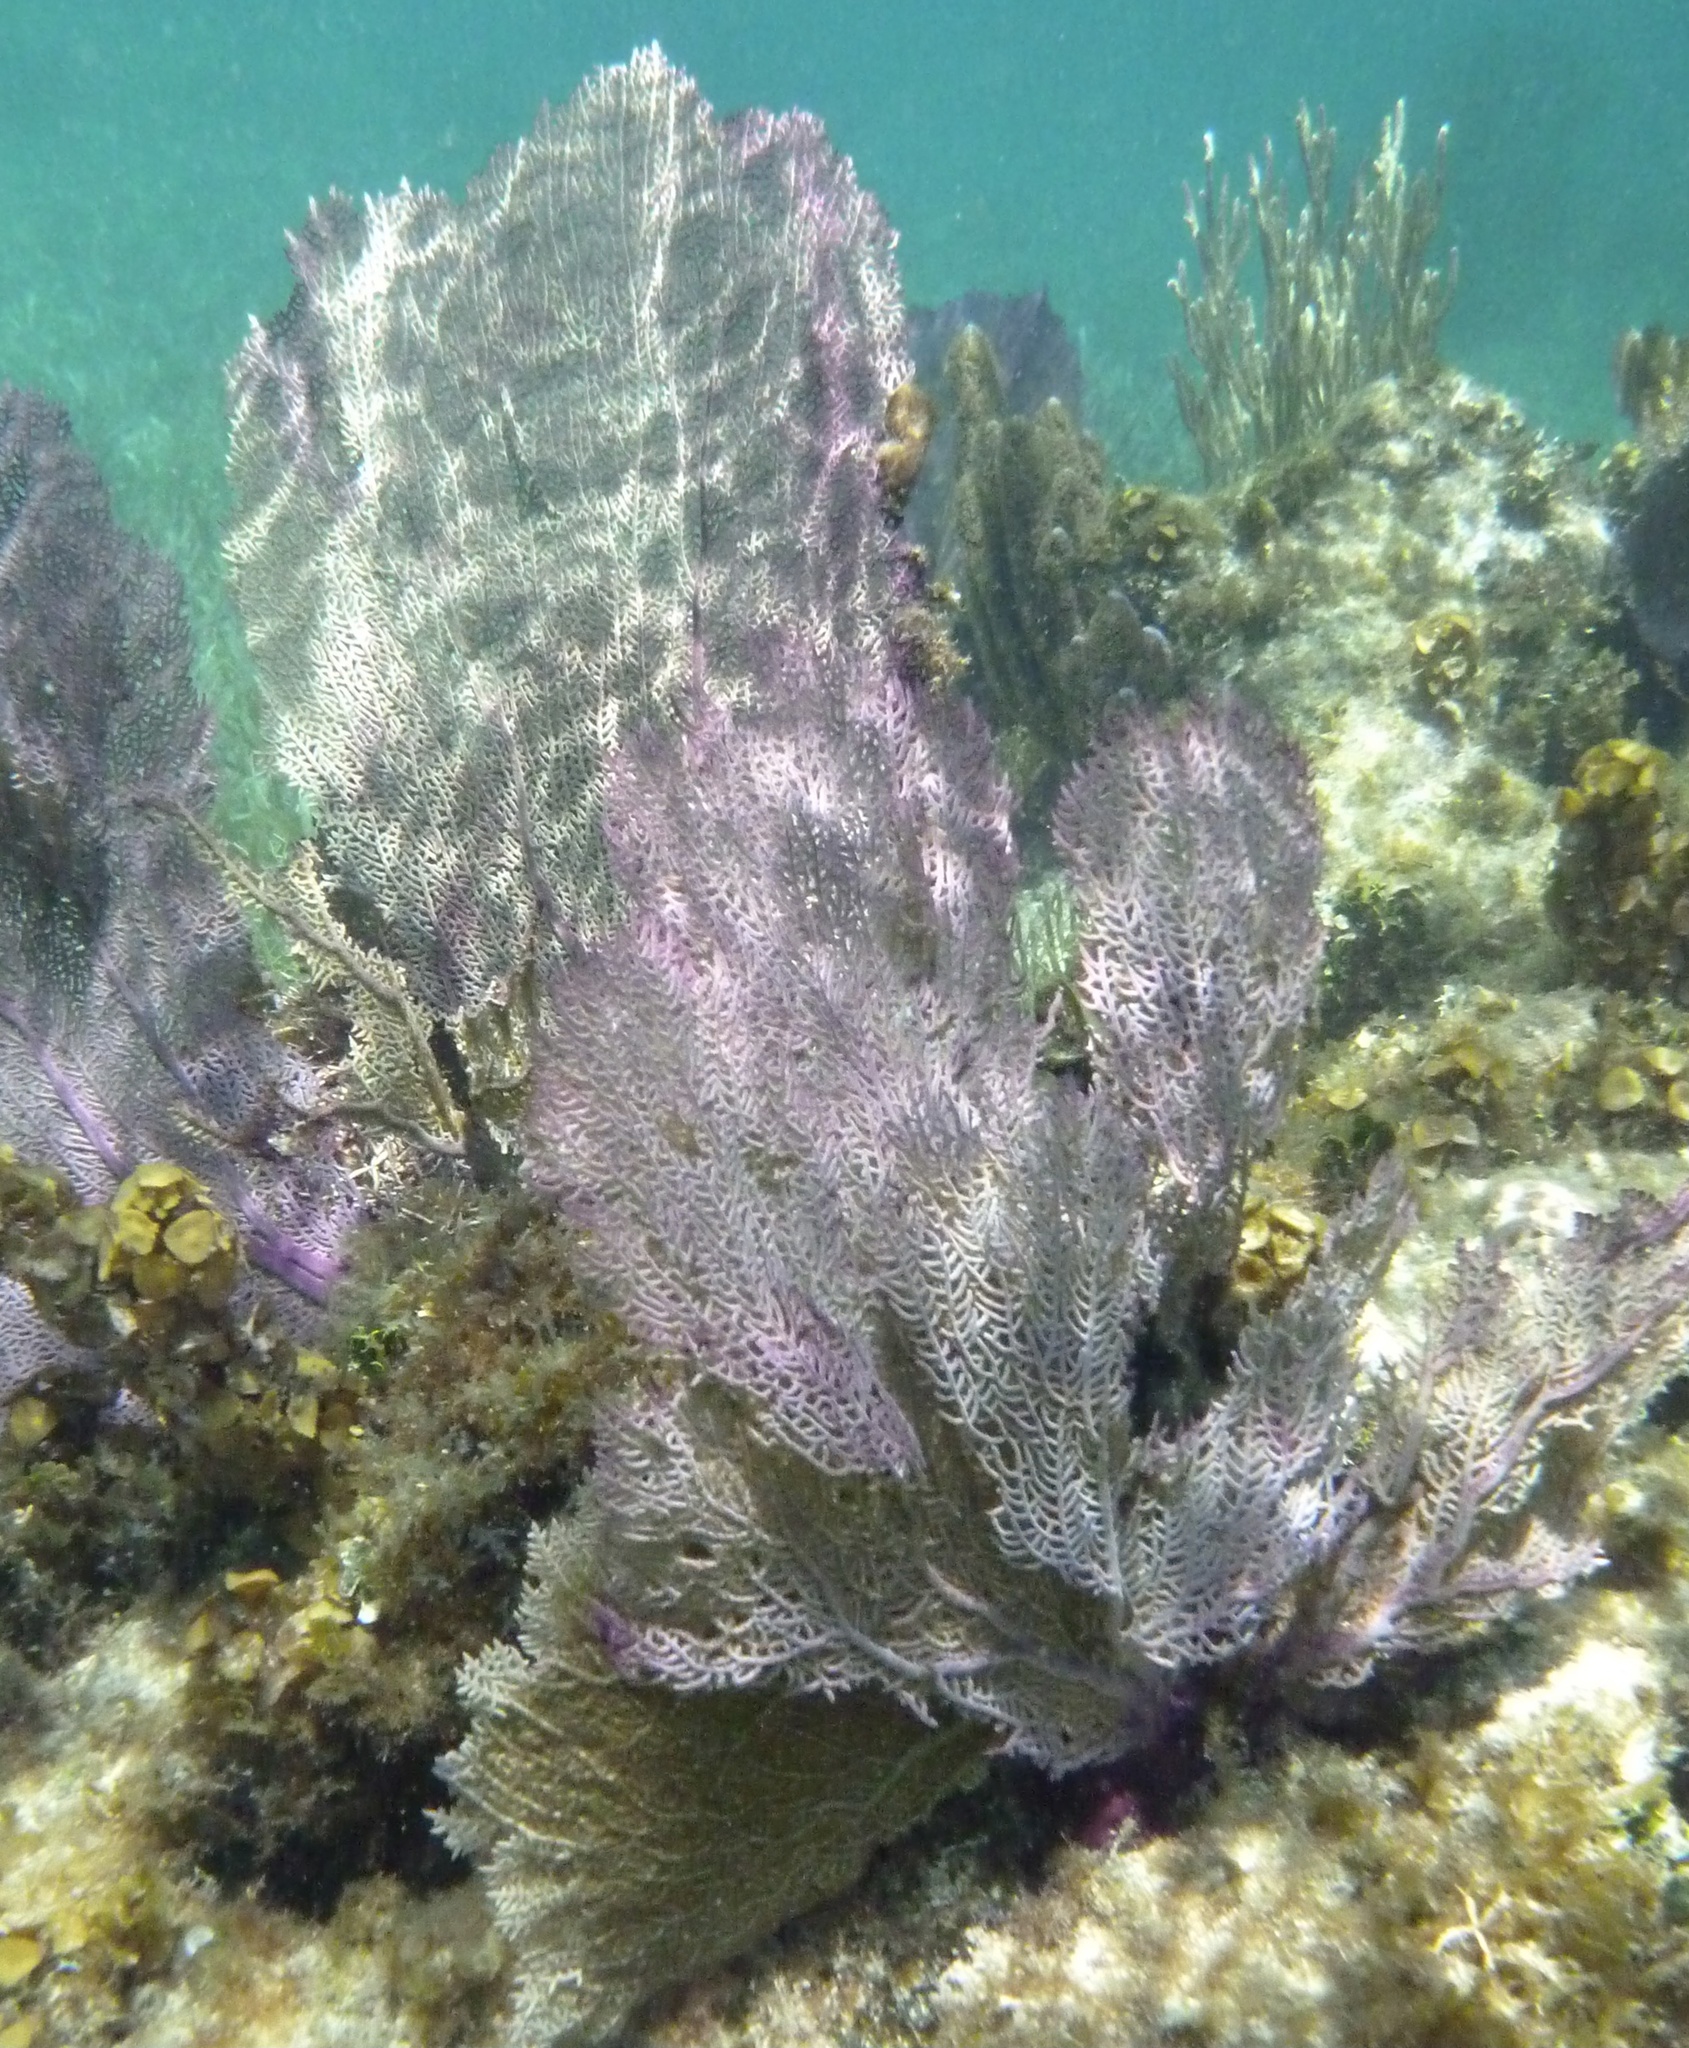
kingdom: Animalia
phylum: Cnidaria
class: Anthozoa
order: Malacalcyonacea
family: Gorgoniidae
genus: Gorgonia
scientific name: Gorgonia ventalina
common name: Common sea fan
